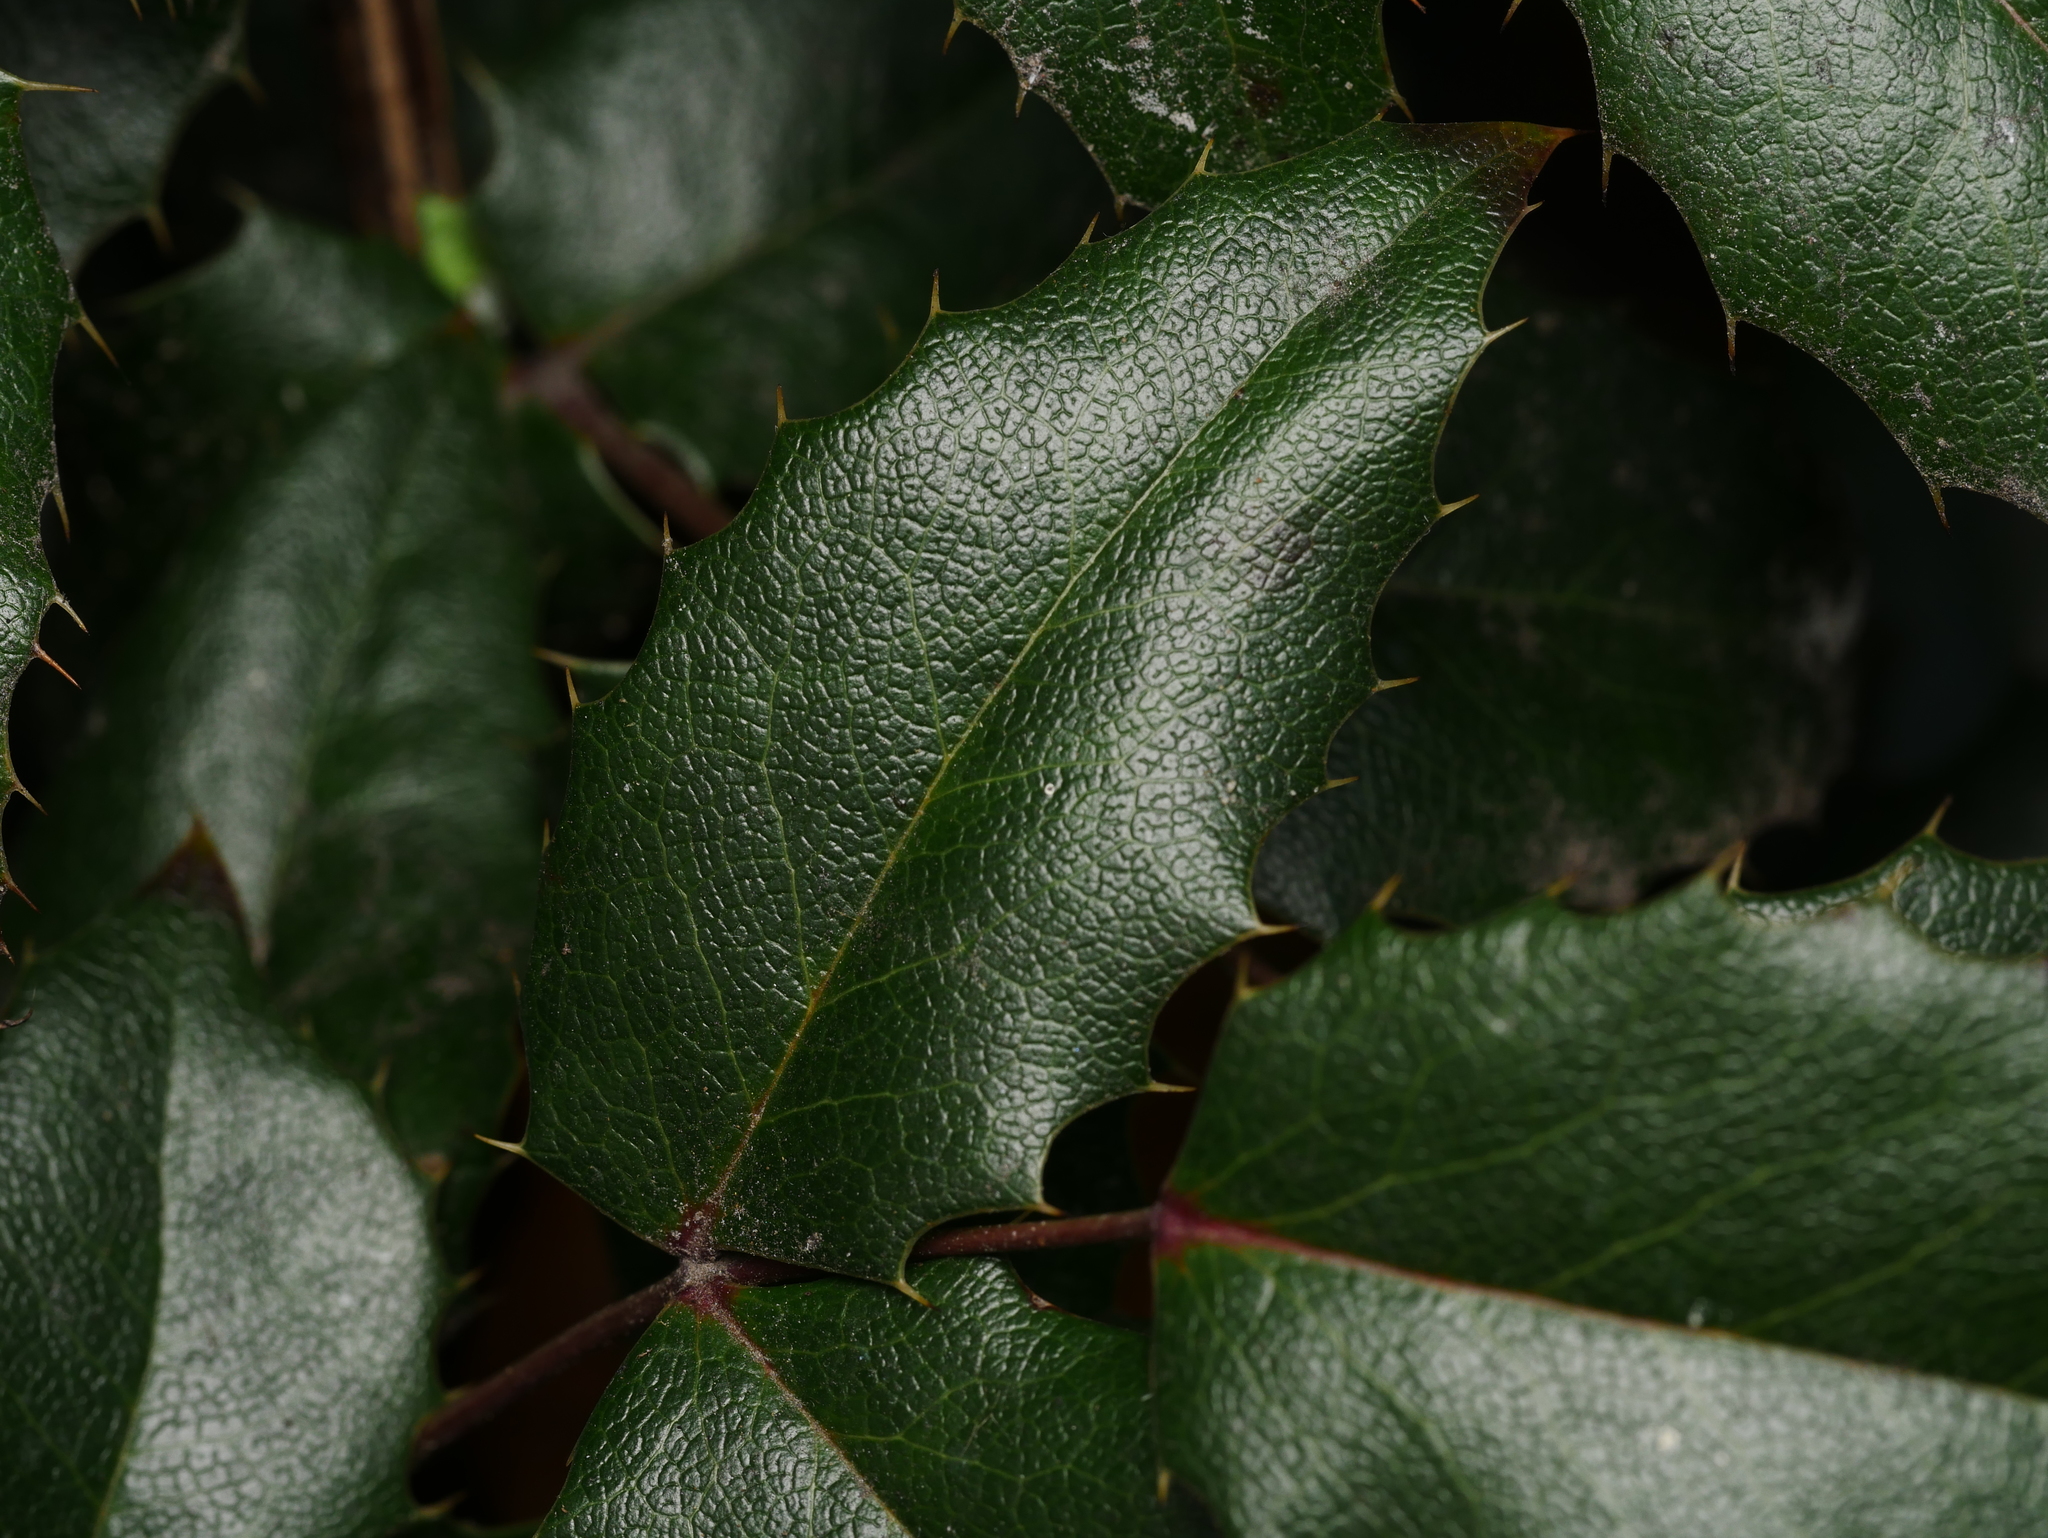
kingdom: Plantae
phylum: Tracheophyta
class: Magnoliopsida
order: Ranunculales
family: Berberidaceae
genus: Mahonia
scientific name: Mahonia aquifolium
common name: Oregon-grape
